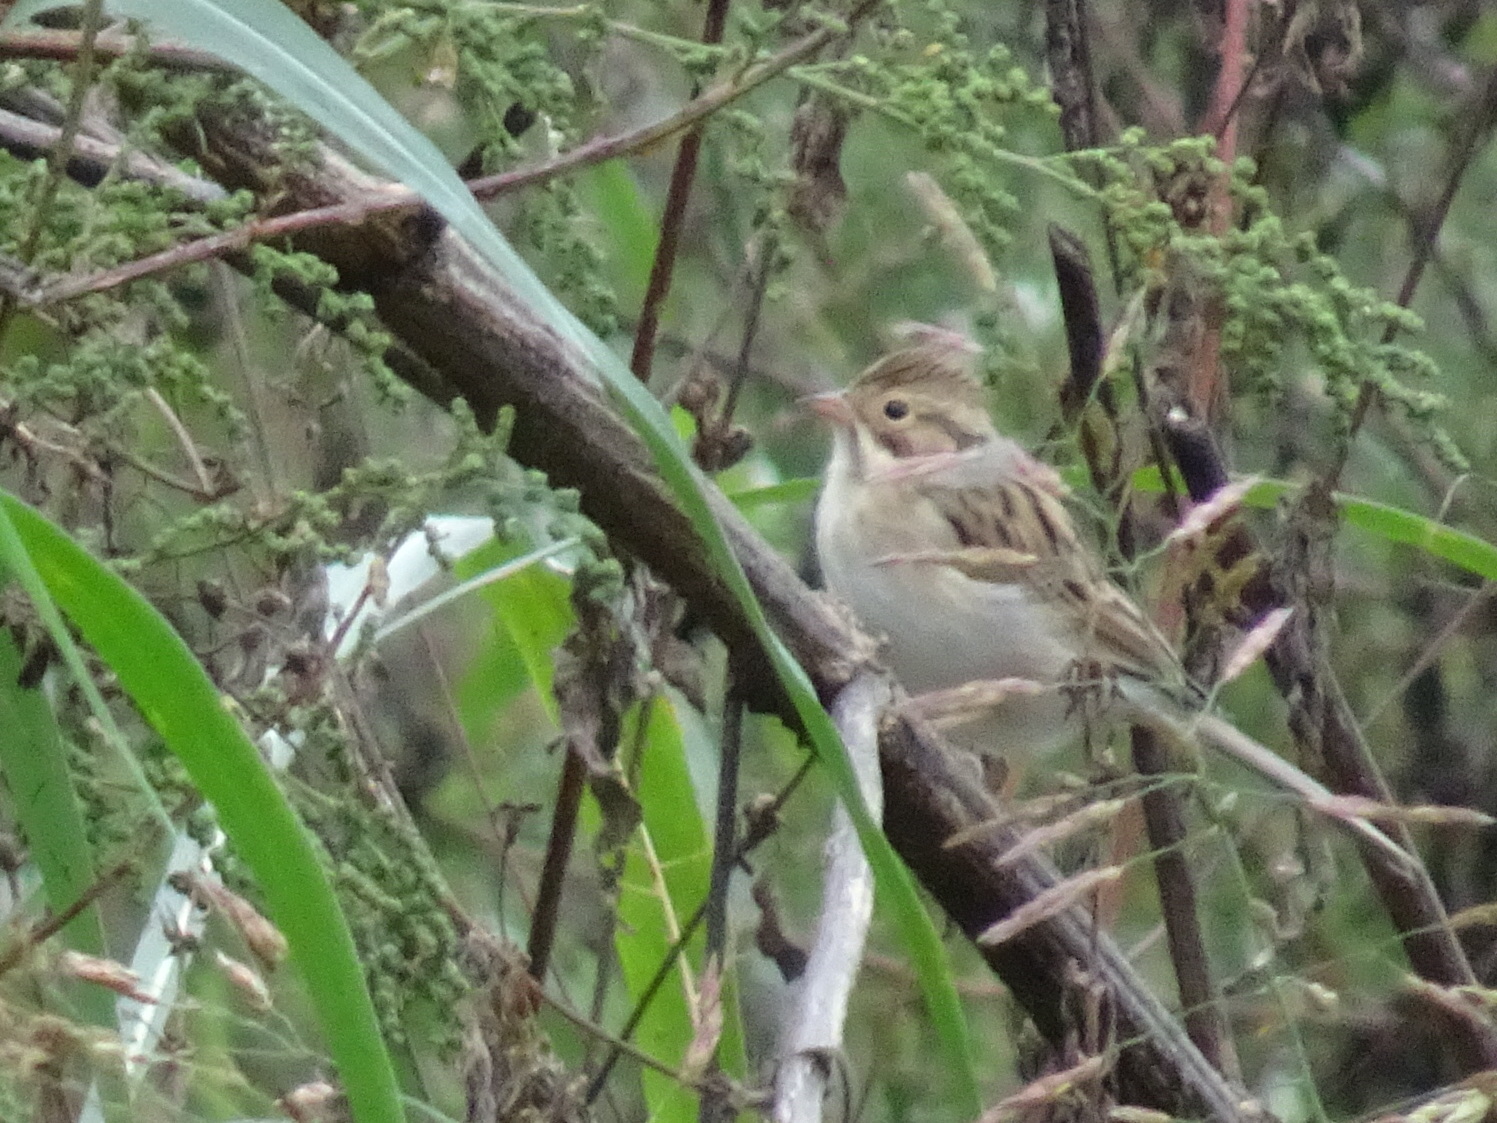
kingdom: Animalia
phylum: Chordata
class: Aves
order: Passeriformes
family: Passerellidae
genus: Spizella
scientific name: Spizella pallida
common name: Clay-colored sparrow
